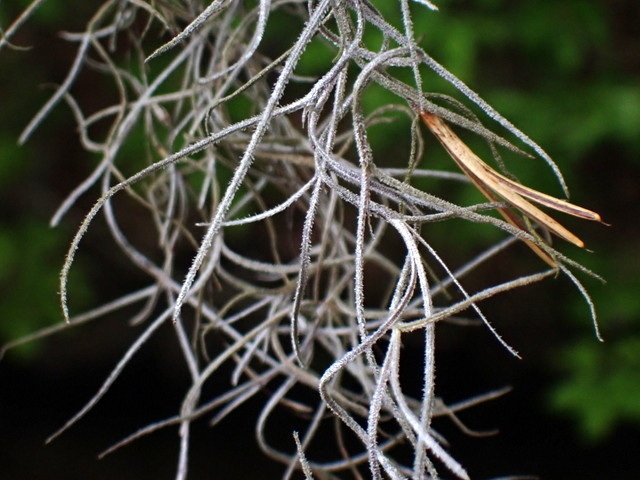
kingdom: Plantae
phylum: Tracheophyta
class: Liliopsida
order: Poales
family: Bromeliaceae
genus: Tillandsia
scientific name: Tillandsia usneoides
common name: Spanish moss
